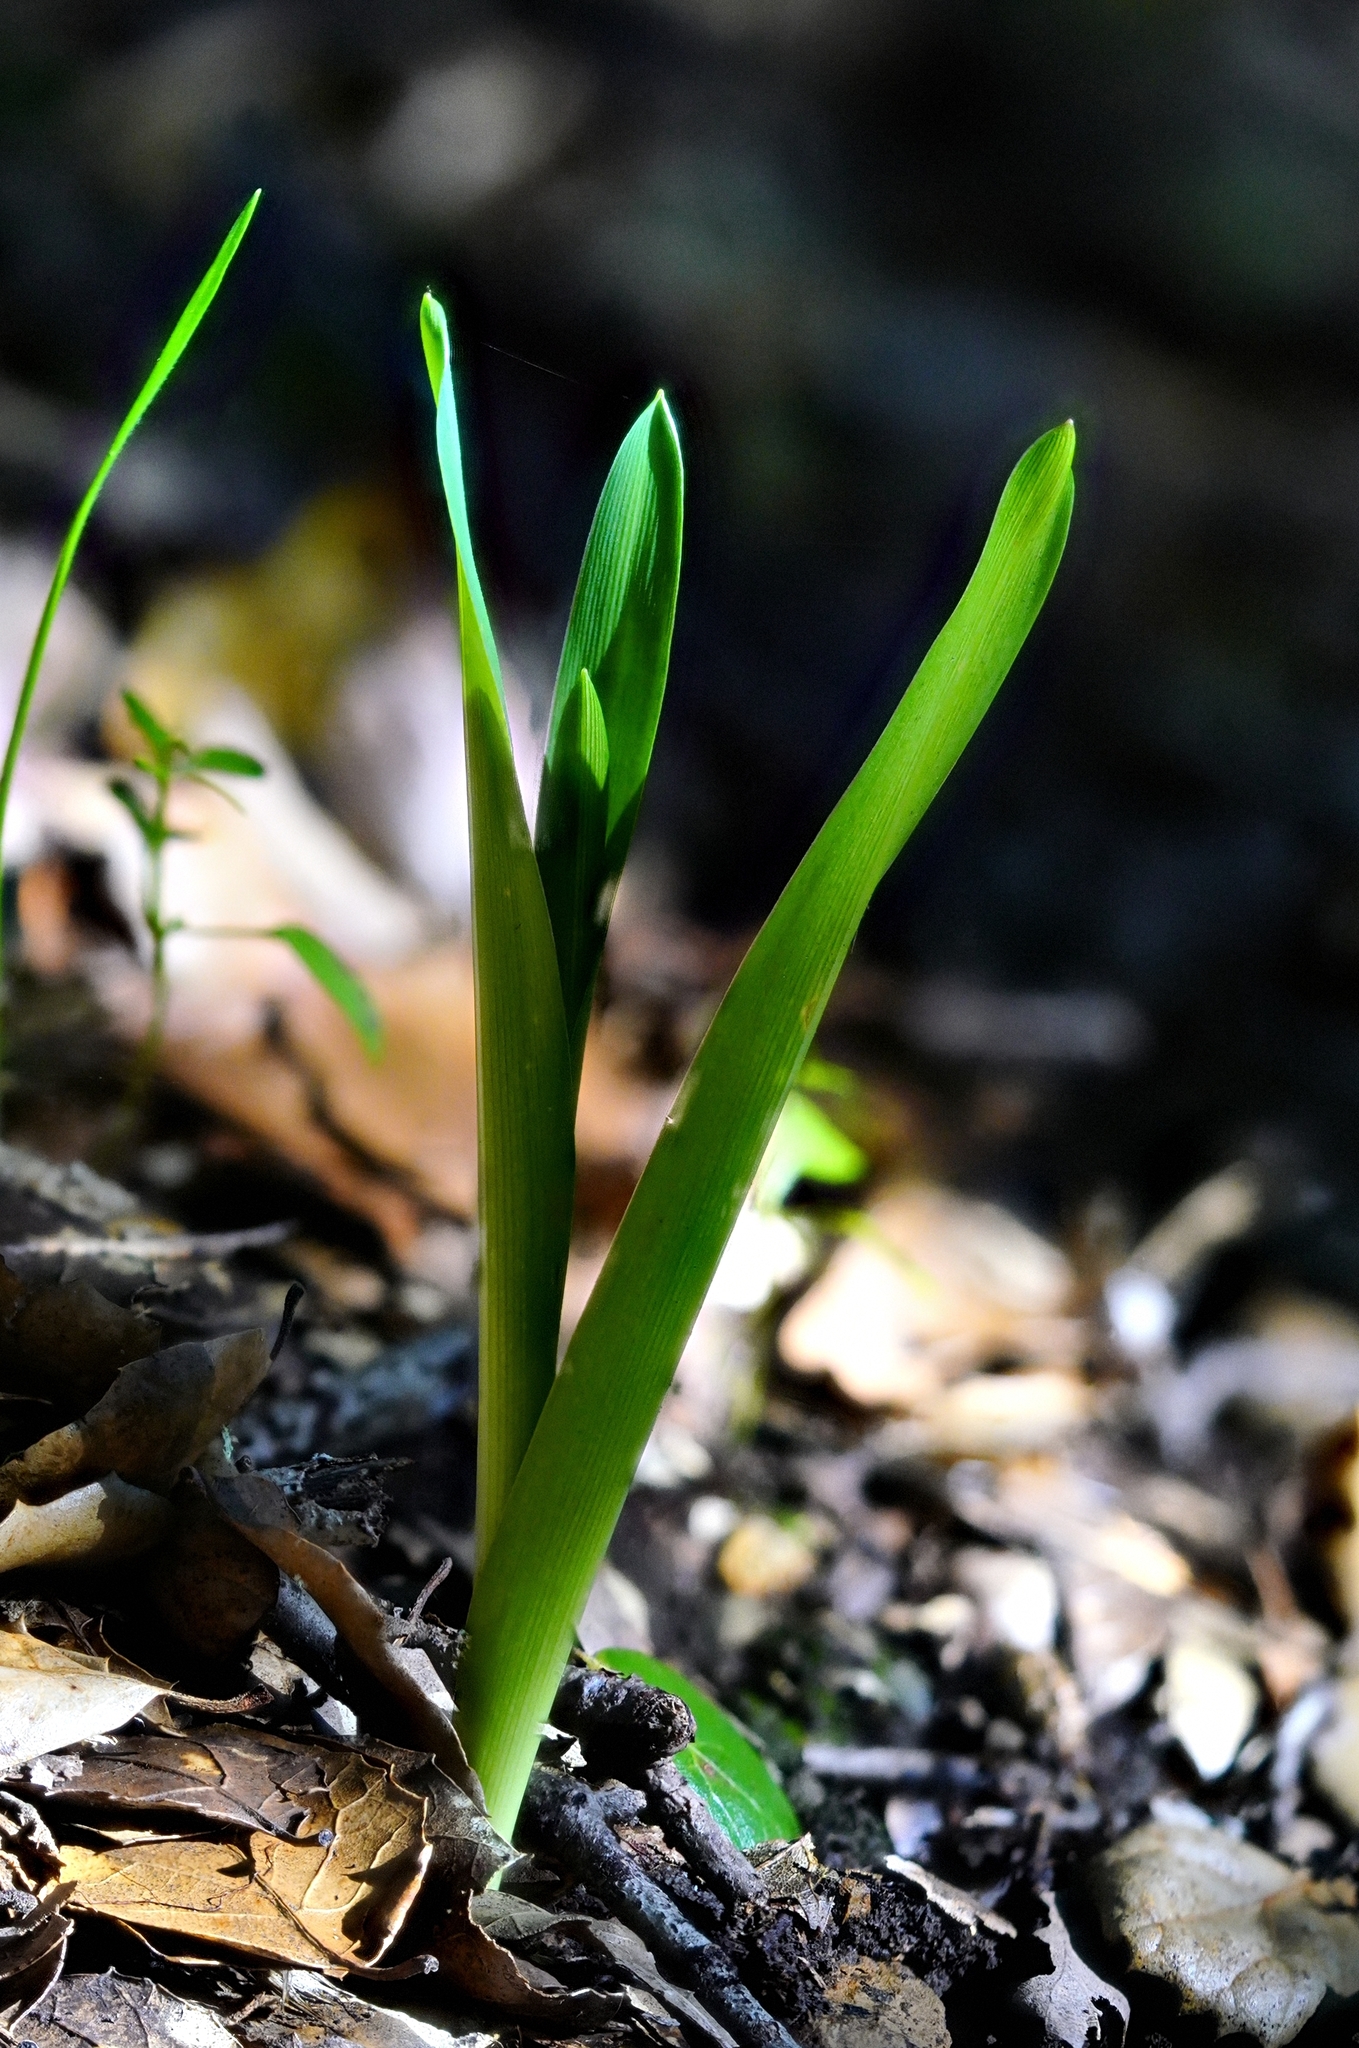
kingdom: Plantae
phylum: Tracheophyta
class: Liliopsida
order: Asparagales
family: Asparagaceae
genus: Chlorogalum
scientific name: Chlorogalum pomeridianum
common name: Amole
